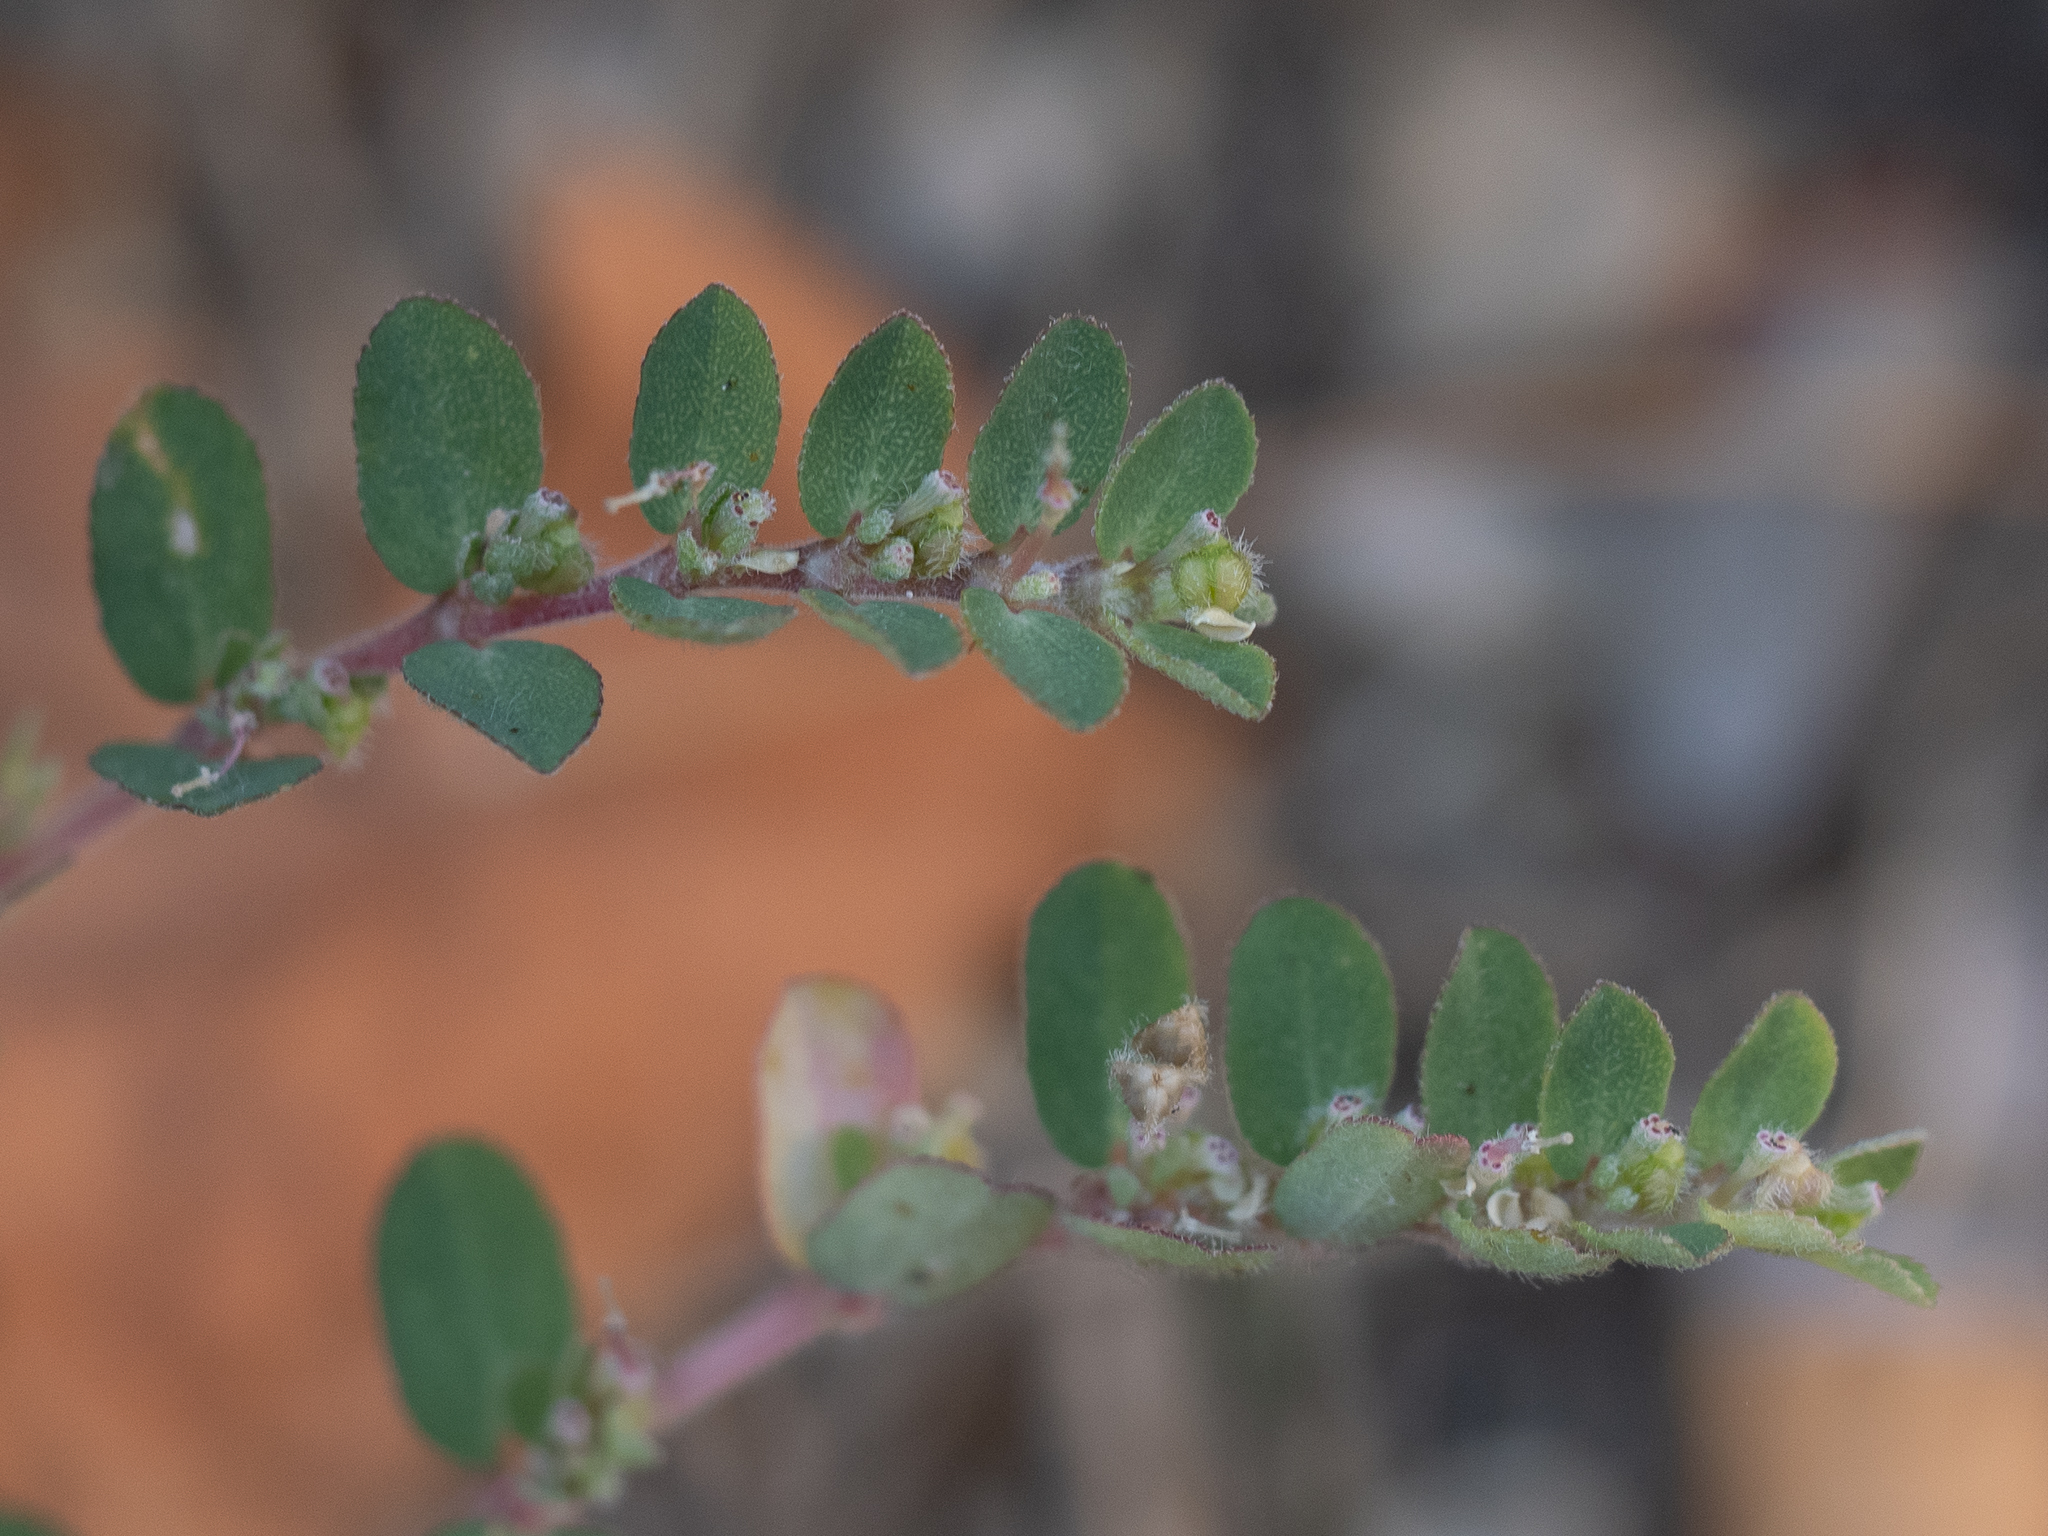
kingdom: Plantae
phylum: Tracheophyta
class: Magnoliopsida
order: Malpighiales
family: Euphorbiaceae
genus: Euphorbia
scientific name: Euphorbia prostrata
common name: Prostrate sandmat
